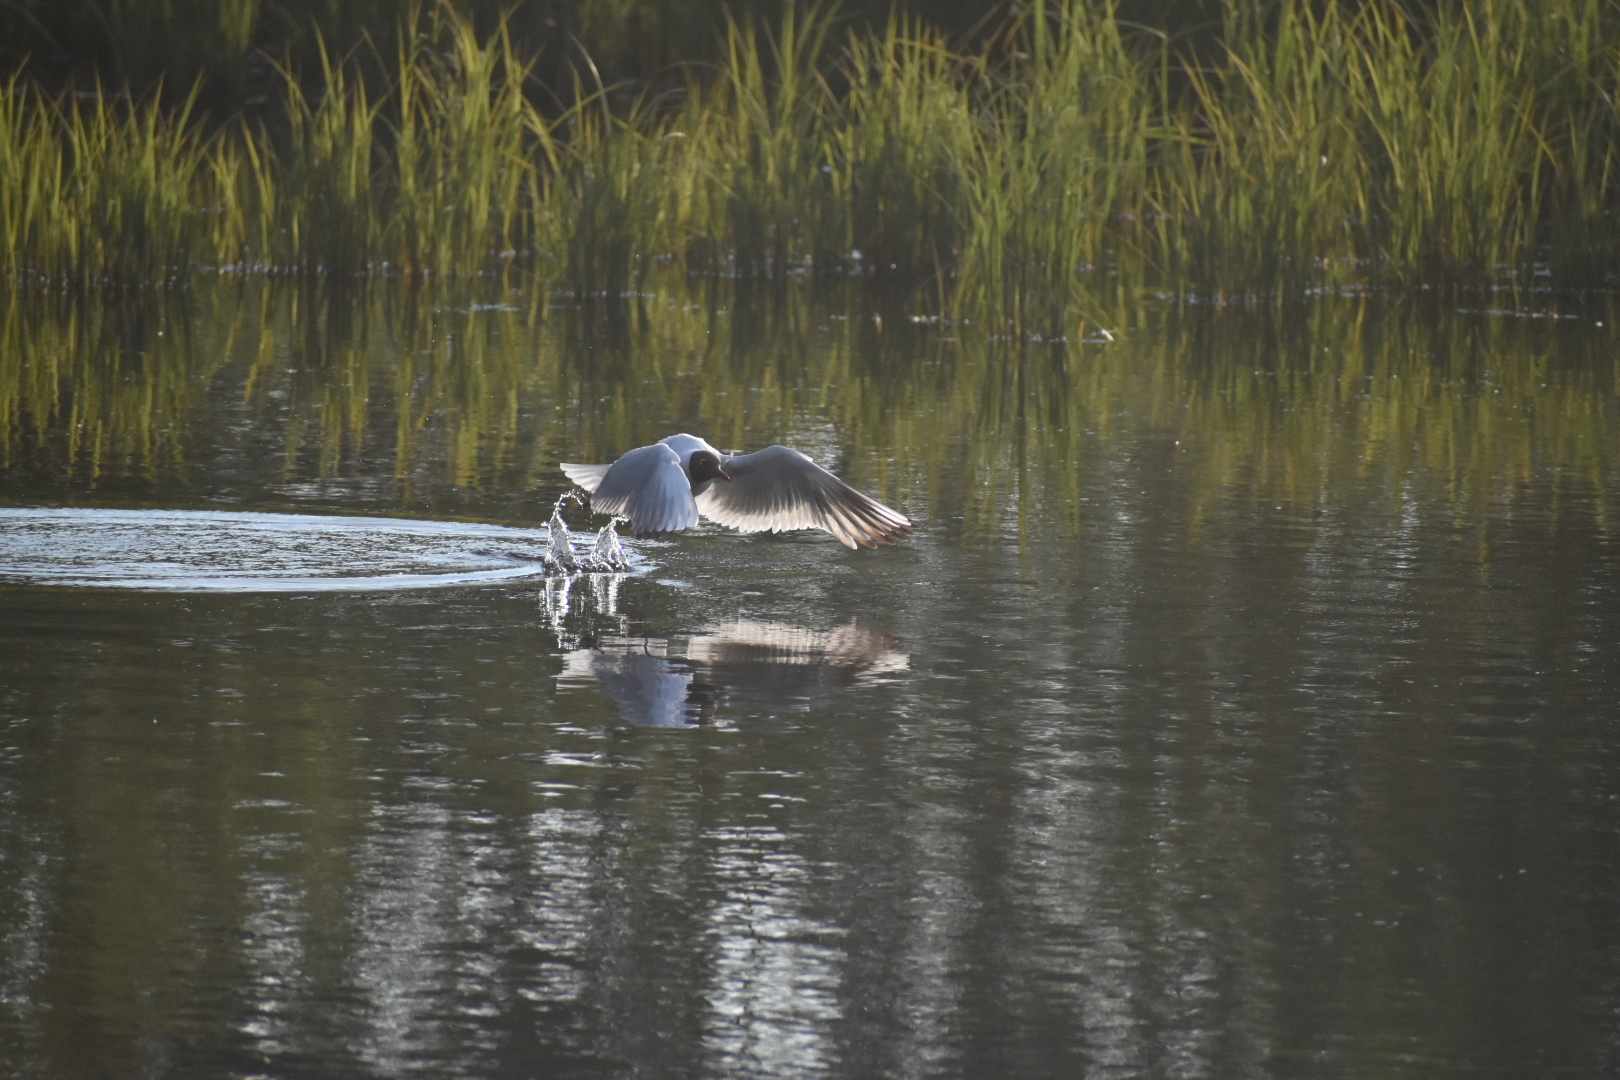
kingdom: Animalia
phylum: Chordata
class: Aves
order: Charadriiformes
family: Laridae
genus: Chroicocephalus
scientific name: Chroicocephalus ridibundus
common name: Black-headed gull
